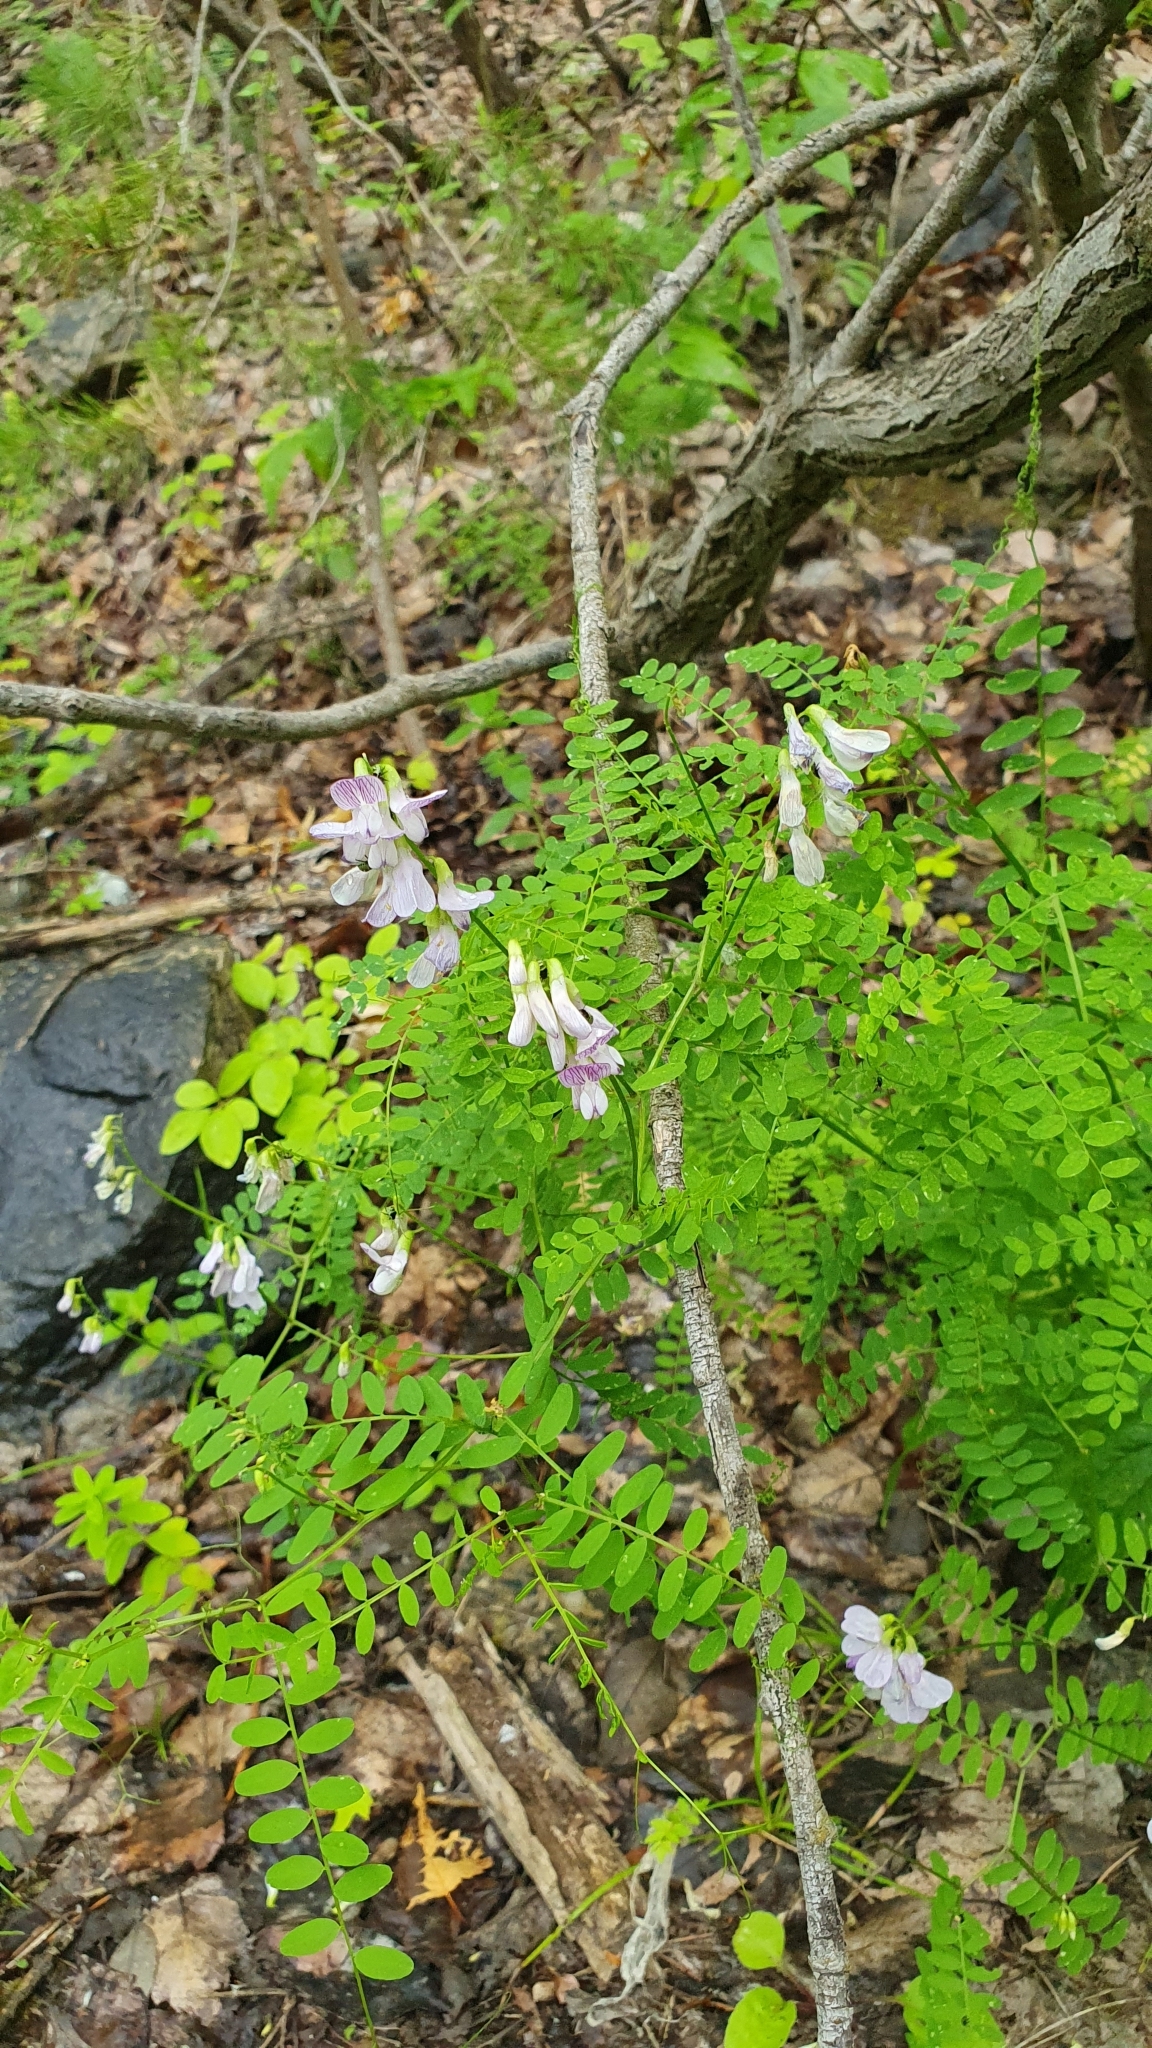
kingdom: Plantae
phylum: Tracheophyta
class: Magnoliopsida
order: Fabales
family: Fabaceae
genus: Vicia
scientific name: Vicia sylvatica
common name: Wood vetch
